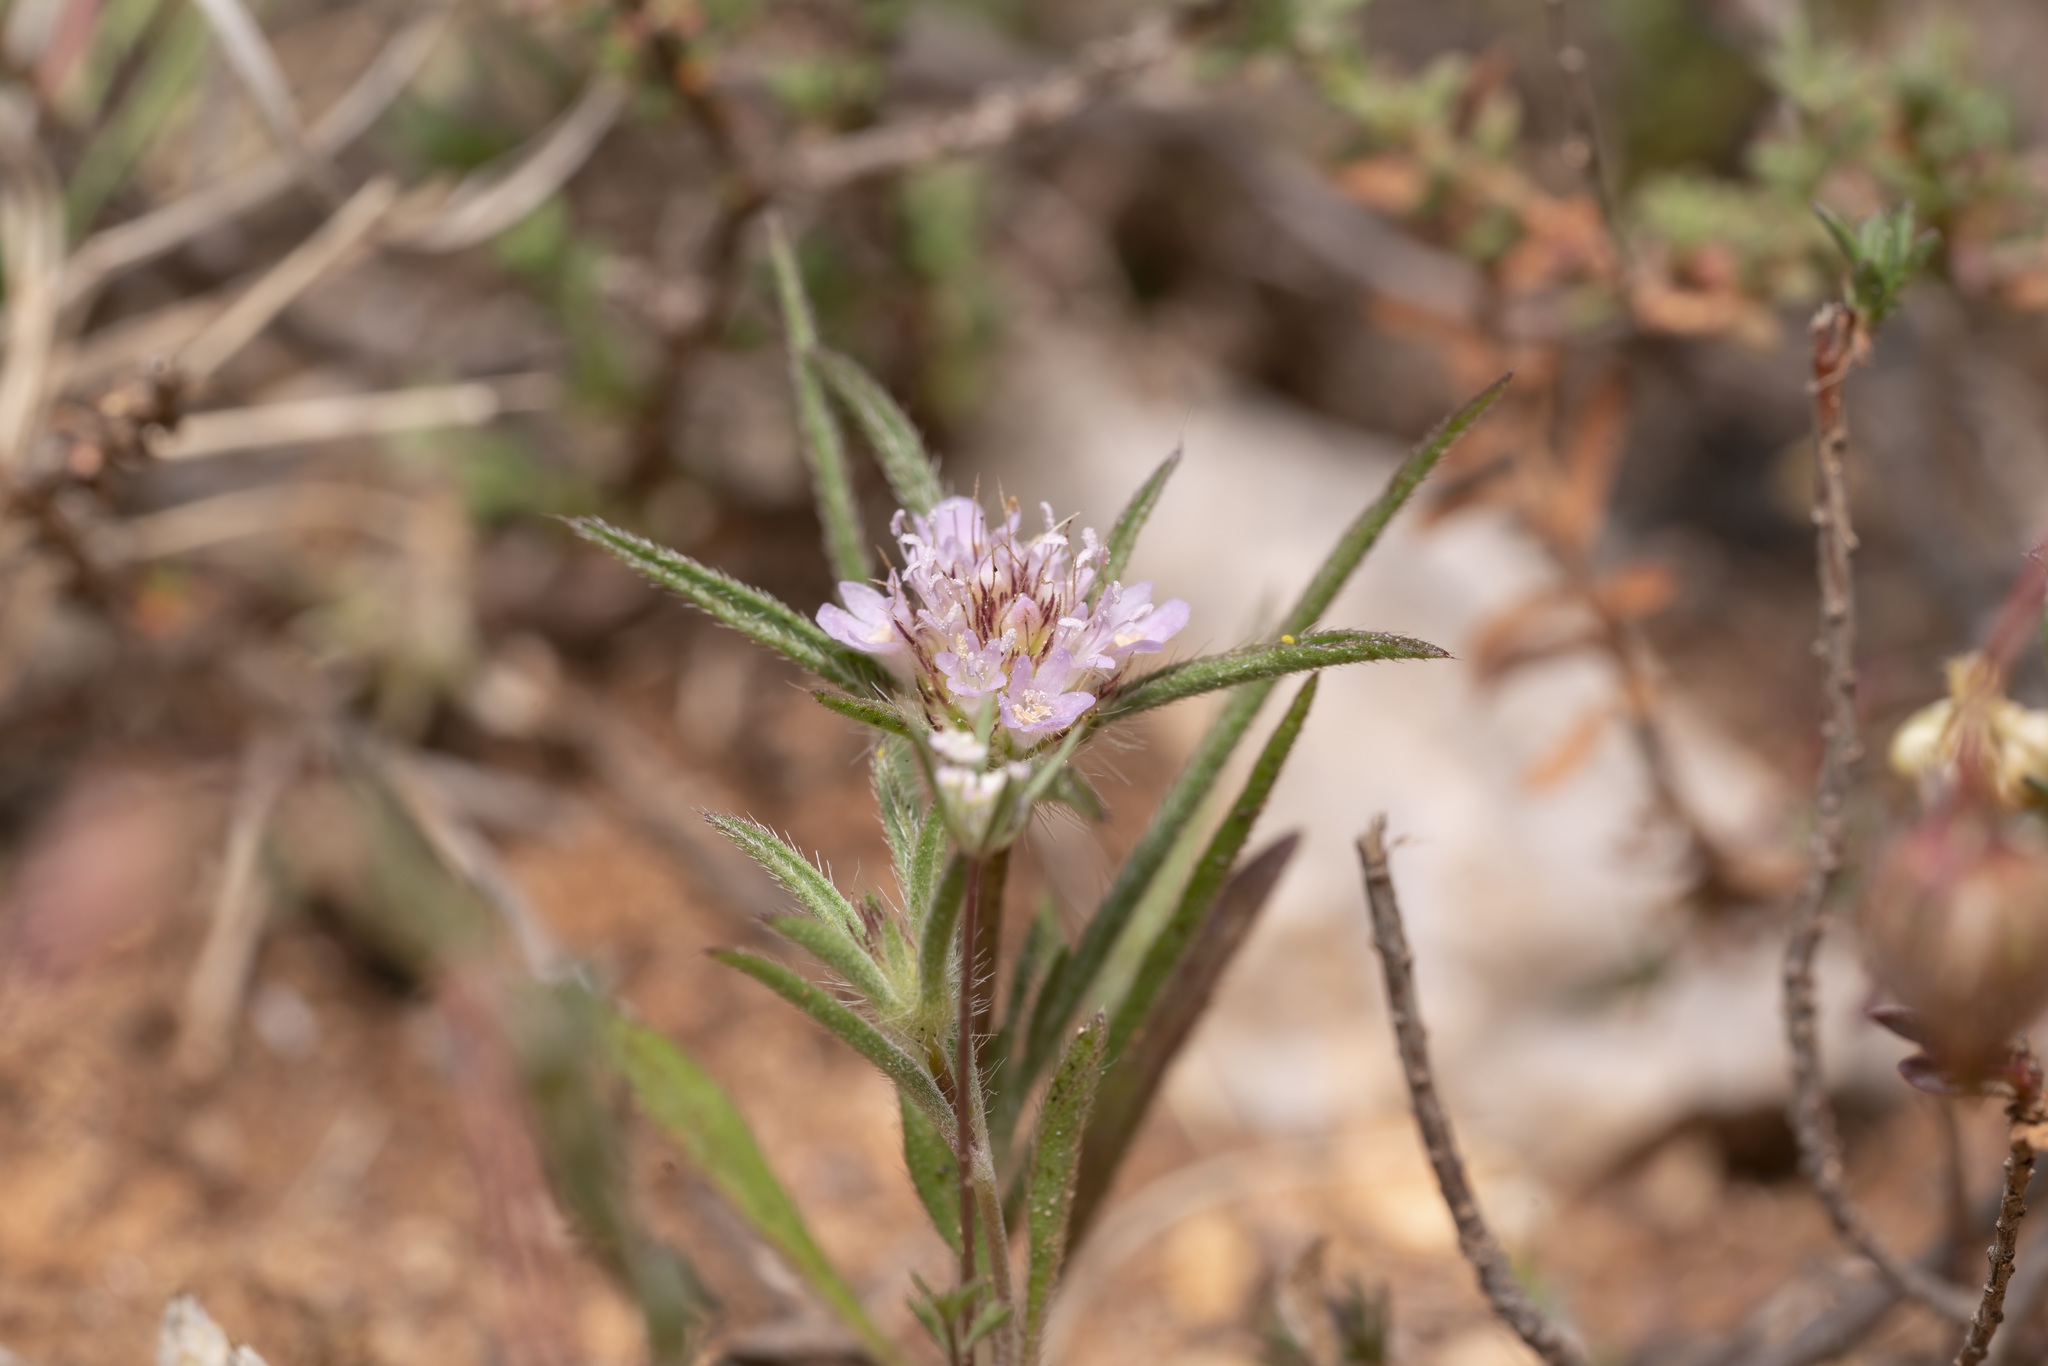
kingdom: Plantae
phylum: Tracheophyta
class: Magnoliopsida
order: Dipsacales
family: Caprifoliaceae
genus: Lomelosia
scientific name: Lomelosia divaricata
